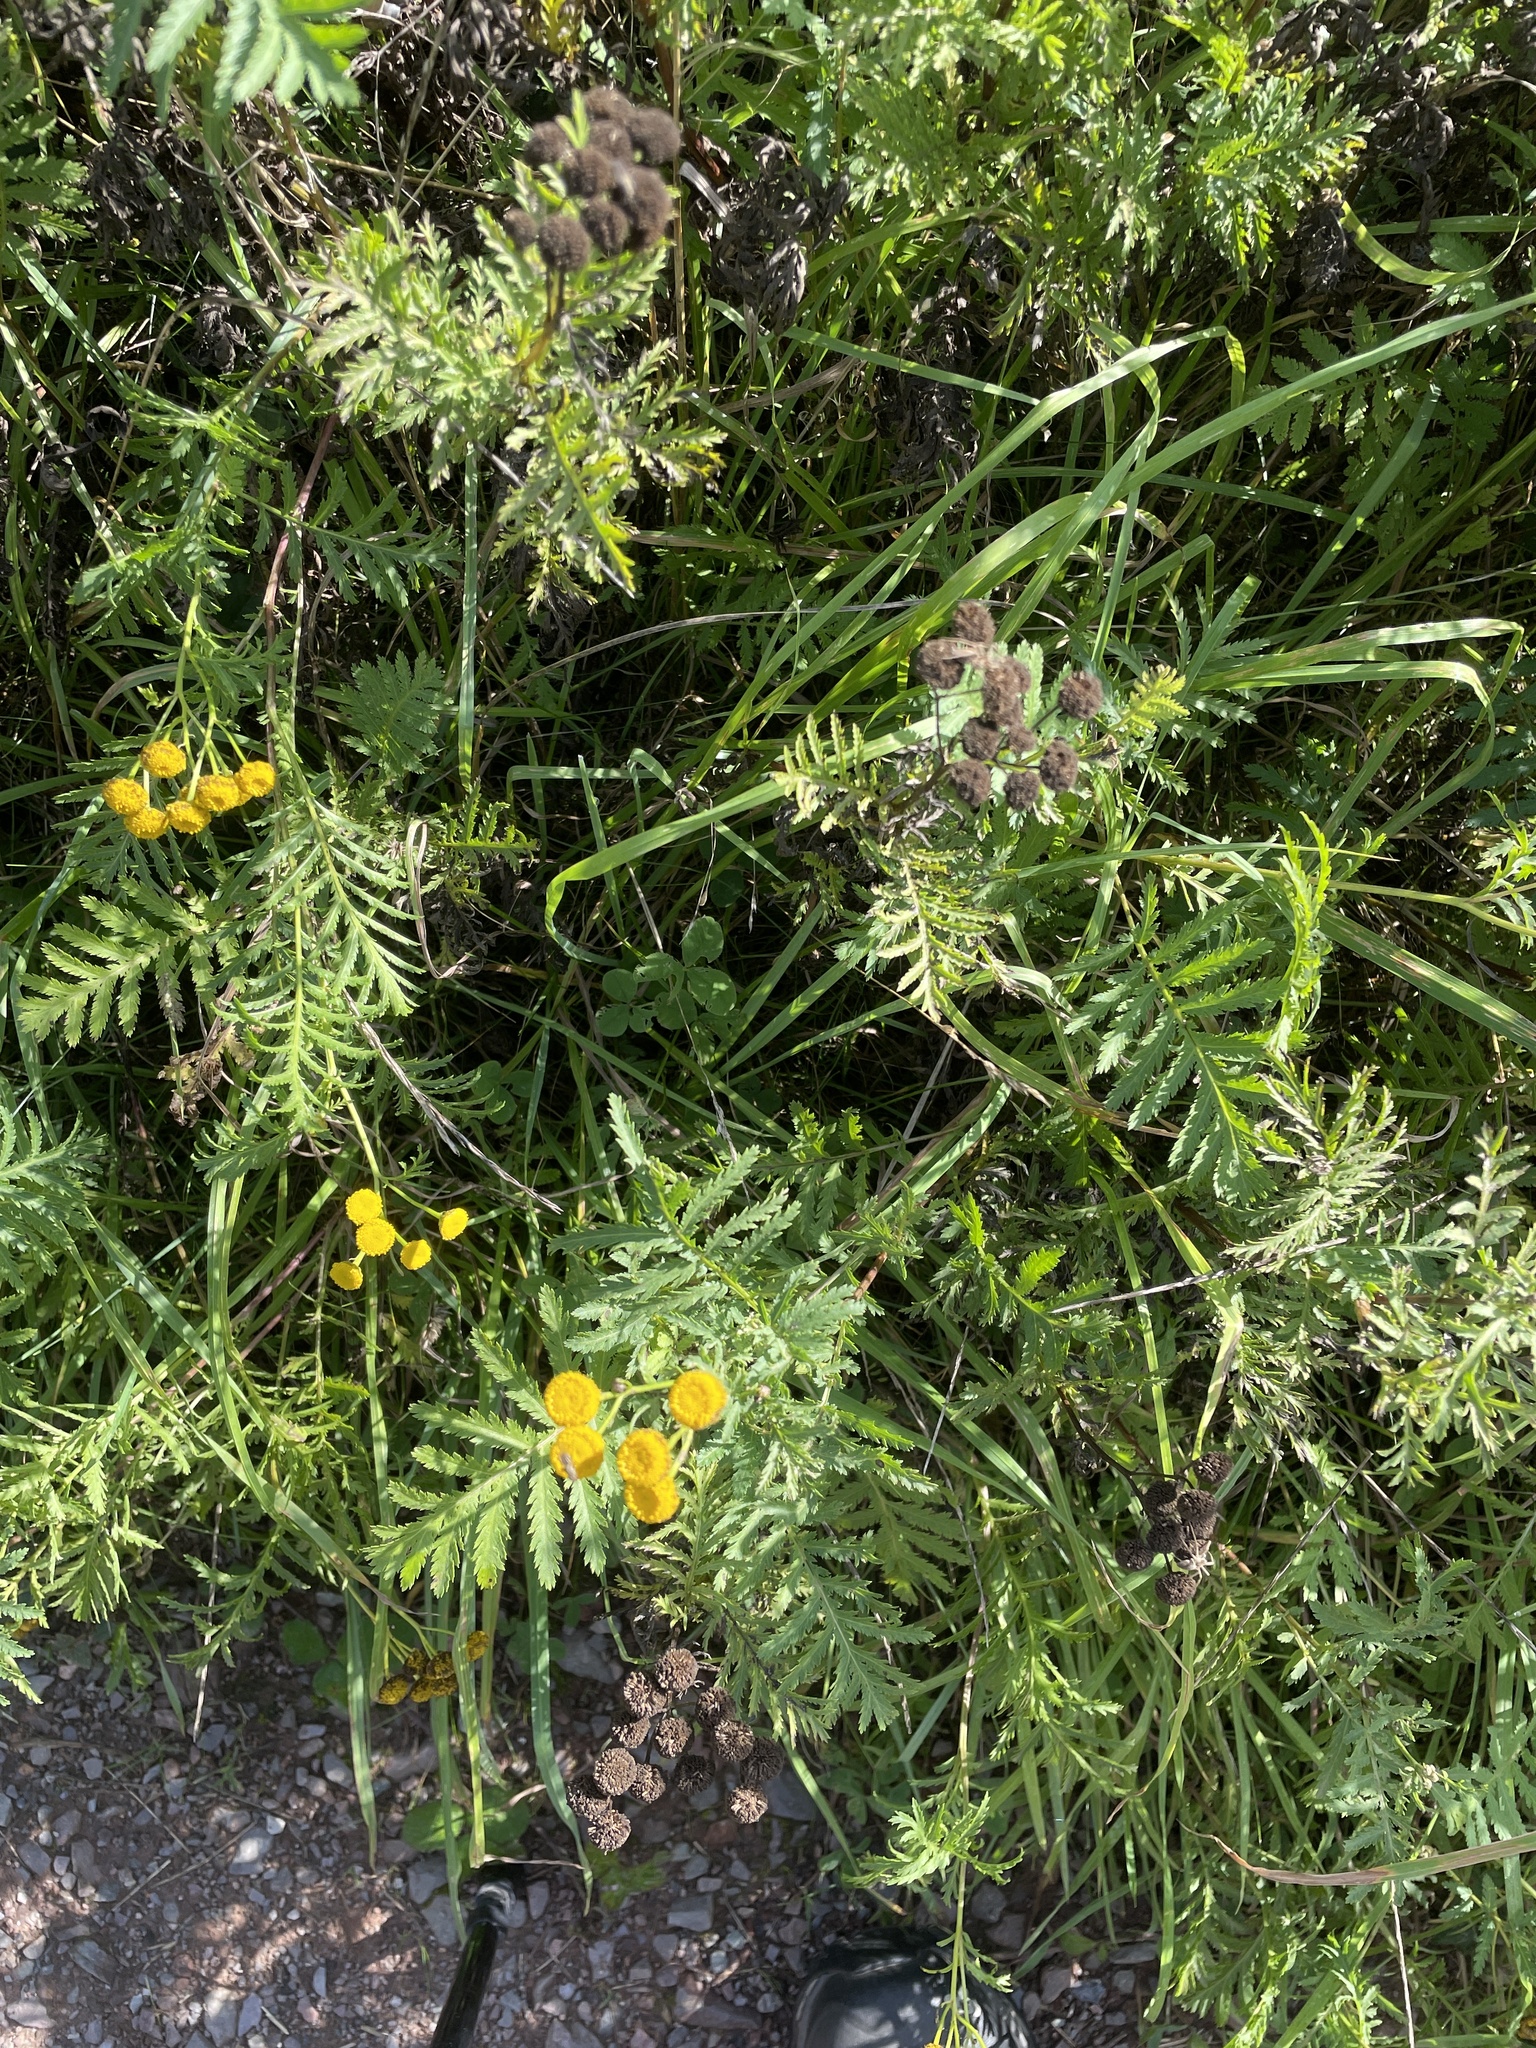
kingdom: Plantae
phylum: Tracheophyta
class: Magnoliopsida
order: Asterales
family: Asteraceae
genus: Tanacetum
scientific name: Tanacetum vulgare
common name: Common tansy
